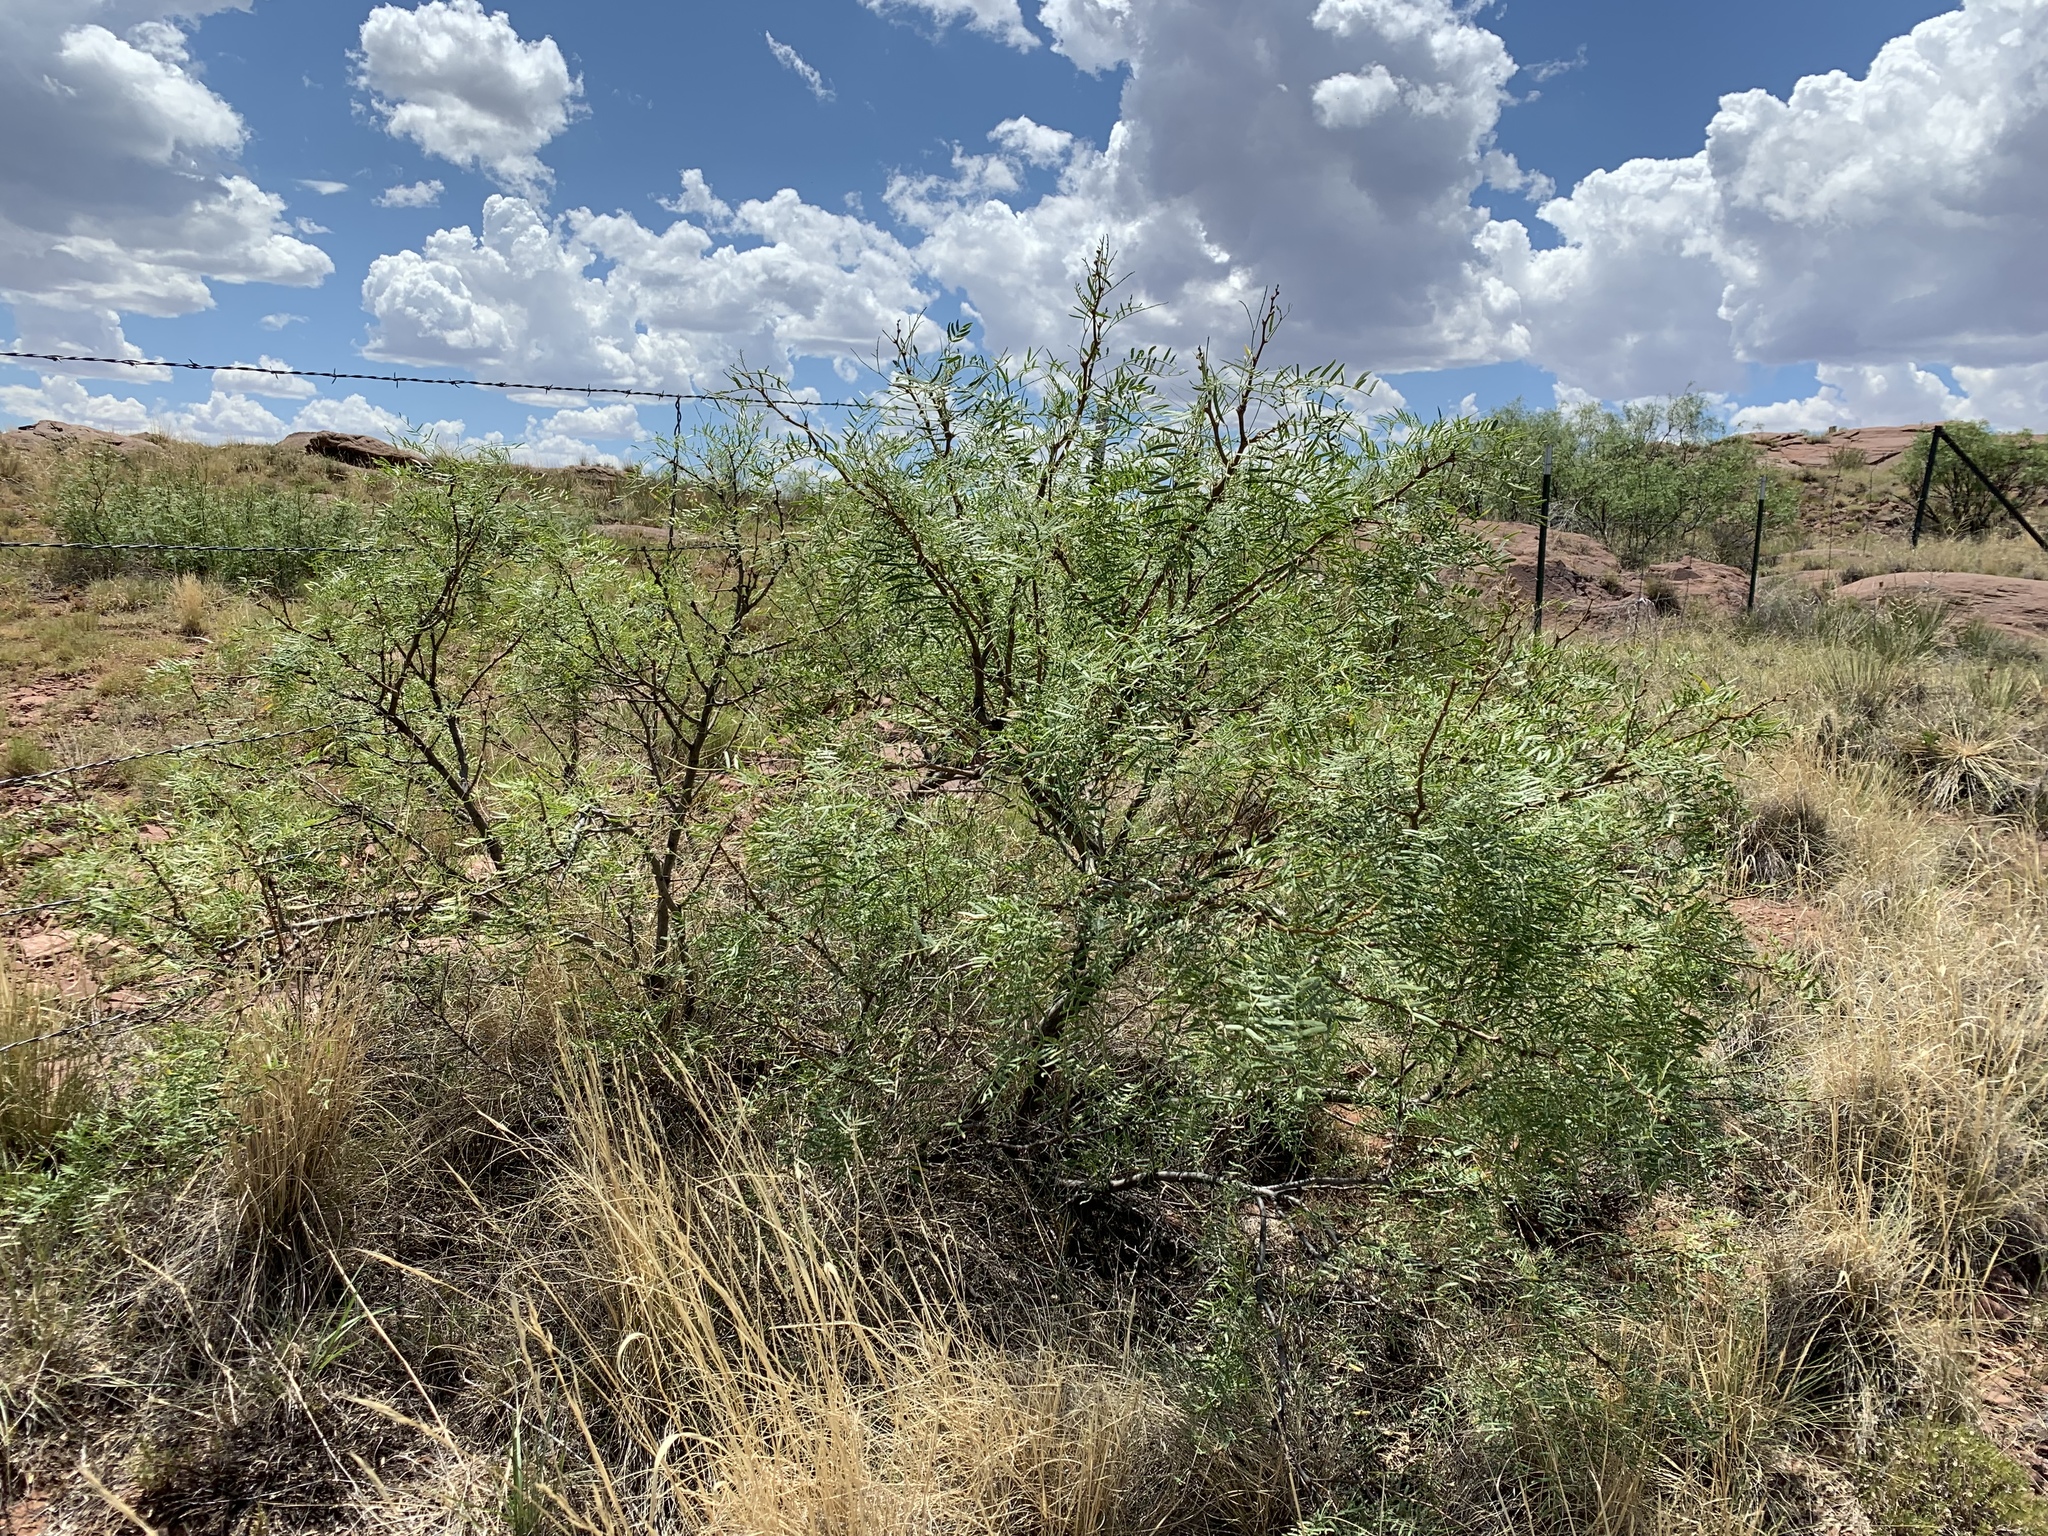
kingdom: Plantae
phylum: Tracheophyta
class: Magnoliopsida
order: Fabales
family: Fabaceae
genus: Prosopis
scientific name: Prosopis glandulosa
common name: Honey mesquite
